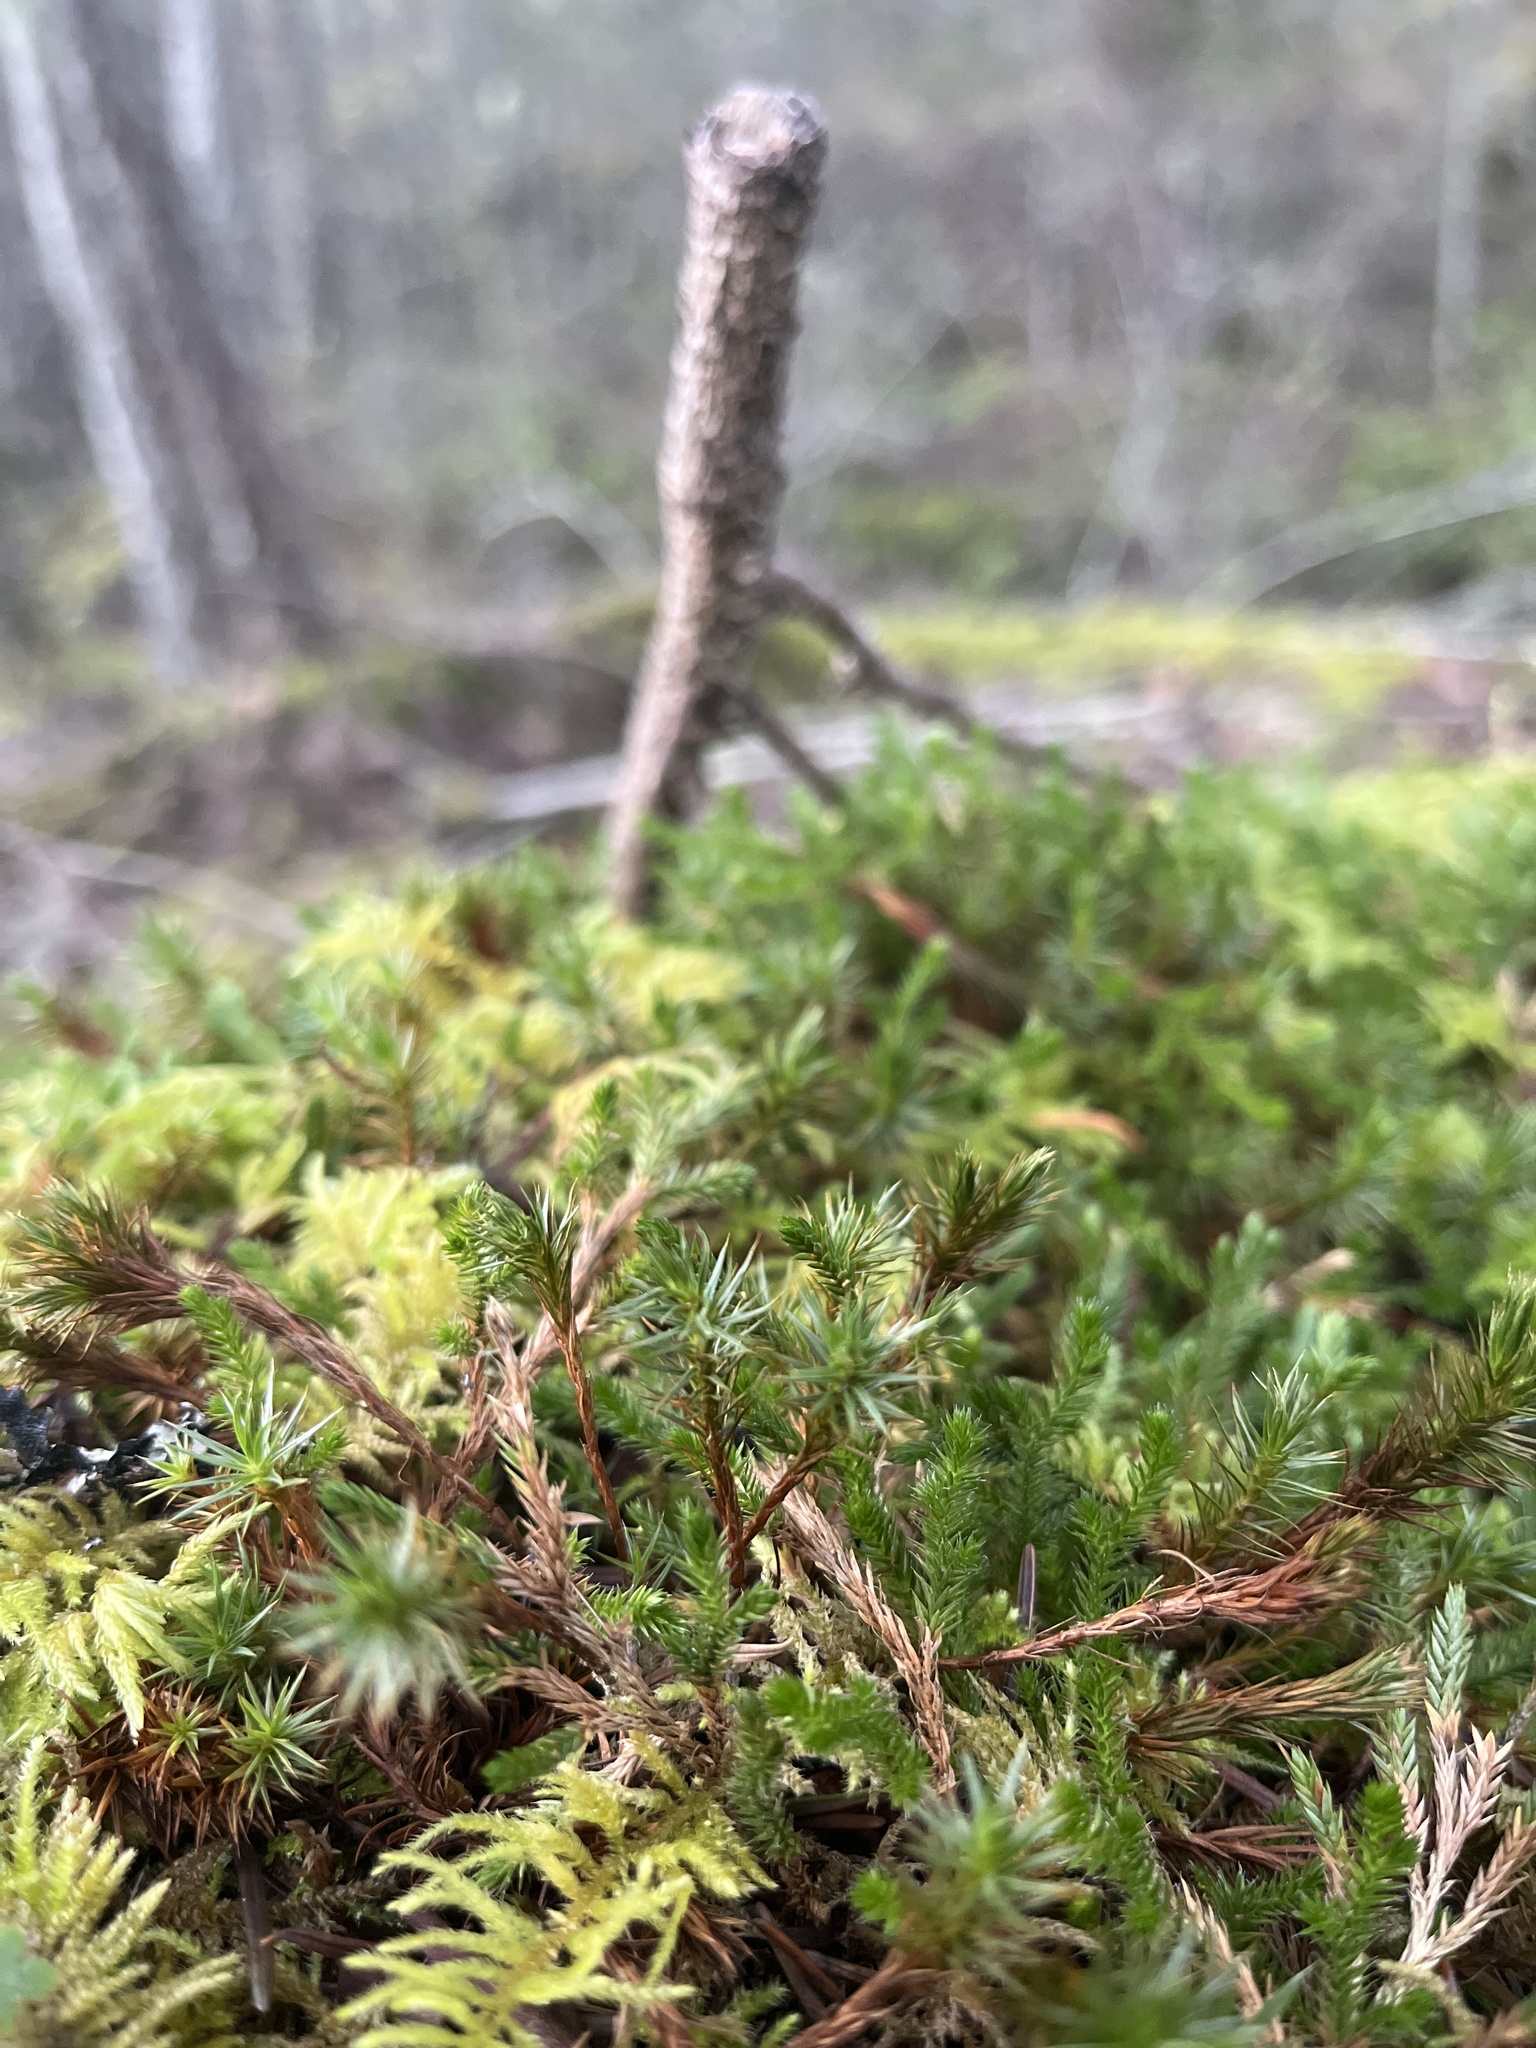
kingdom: Plantae
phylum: Bryophyta
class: Polytrichopsida
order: Polytrichales
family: Polytrichaceae
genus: Polytrichum
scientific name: Polytrichum juniperinum
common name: Juniper haircap moss
